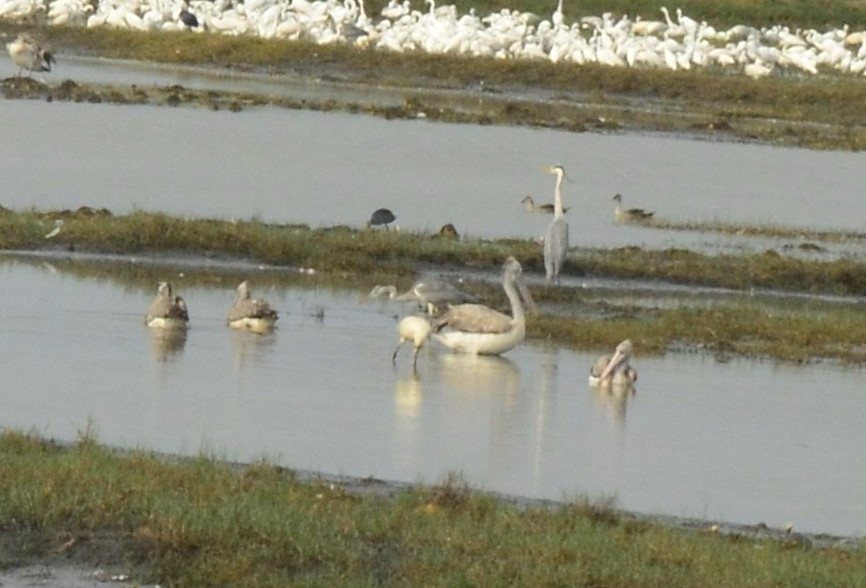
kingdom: Animalia
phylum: Chordata
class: Aves
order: Pelecaniformes
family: Pelecanidae
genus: Pelecanus
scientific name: Pelecanus philippensis
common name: Spot-billed pelican
